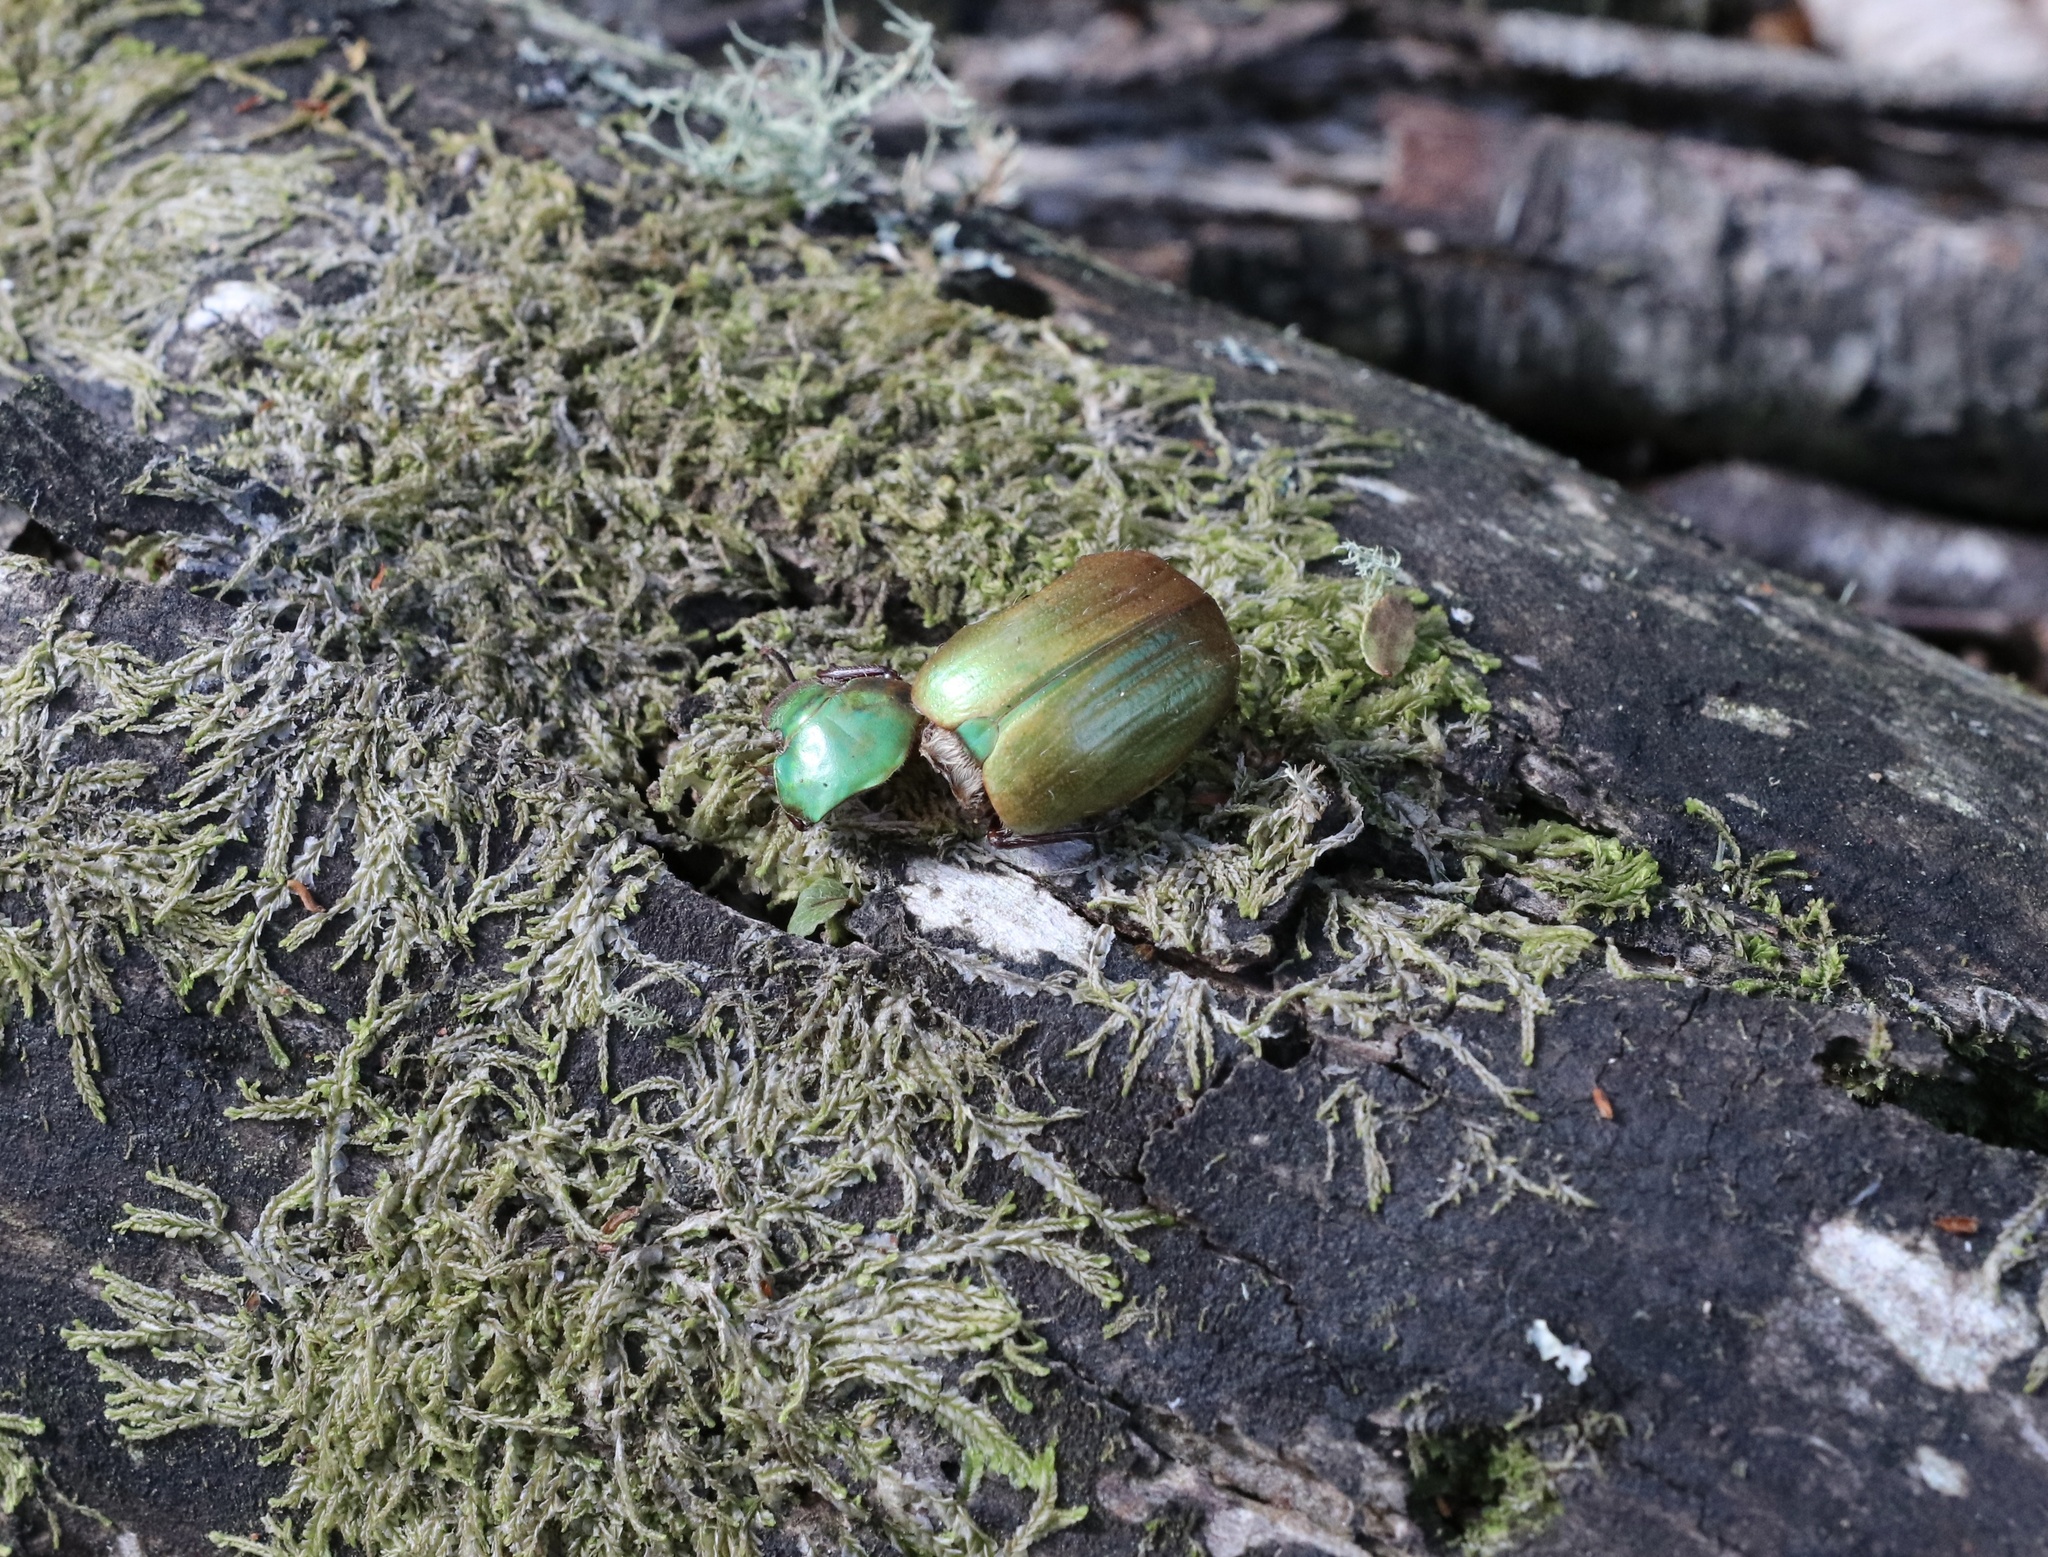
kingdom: Animalia
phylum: Arthropoda
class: Insecta
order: Coleoptera
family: Scarabaeidae
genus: Modialis
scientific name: Modialis prasinella
